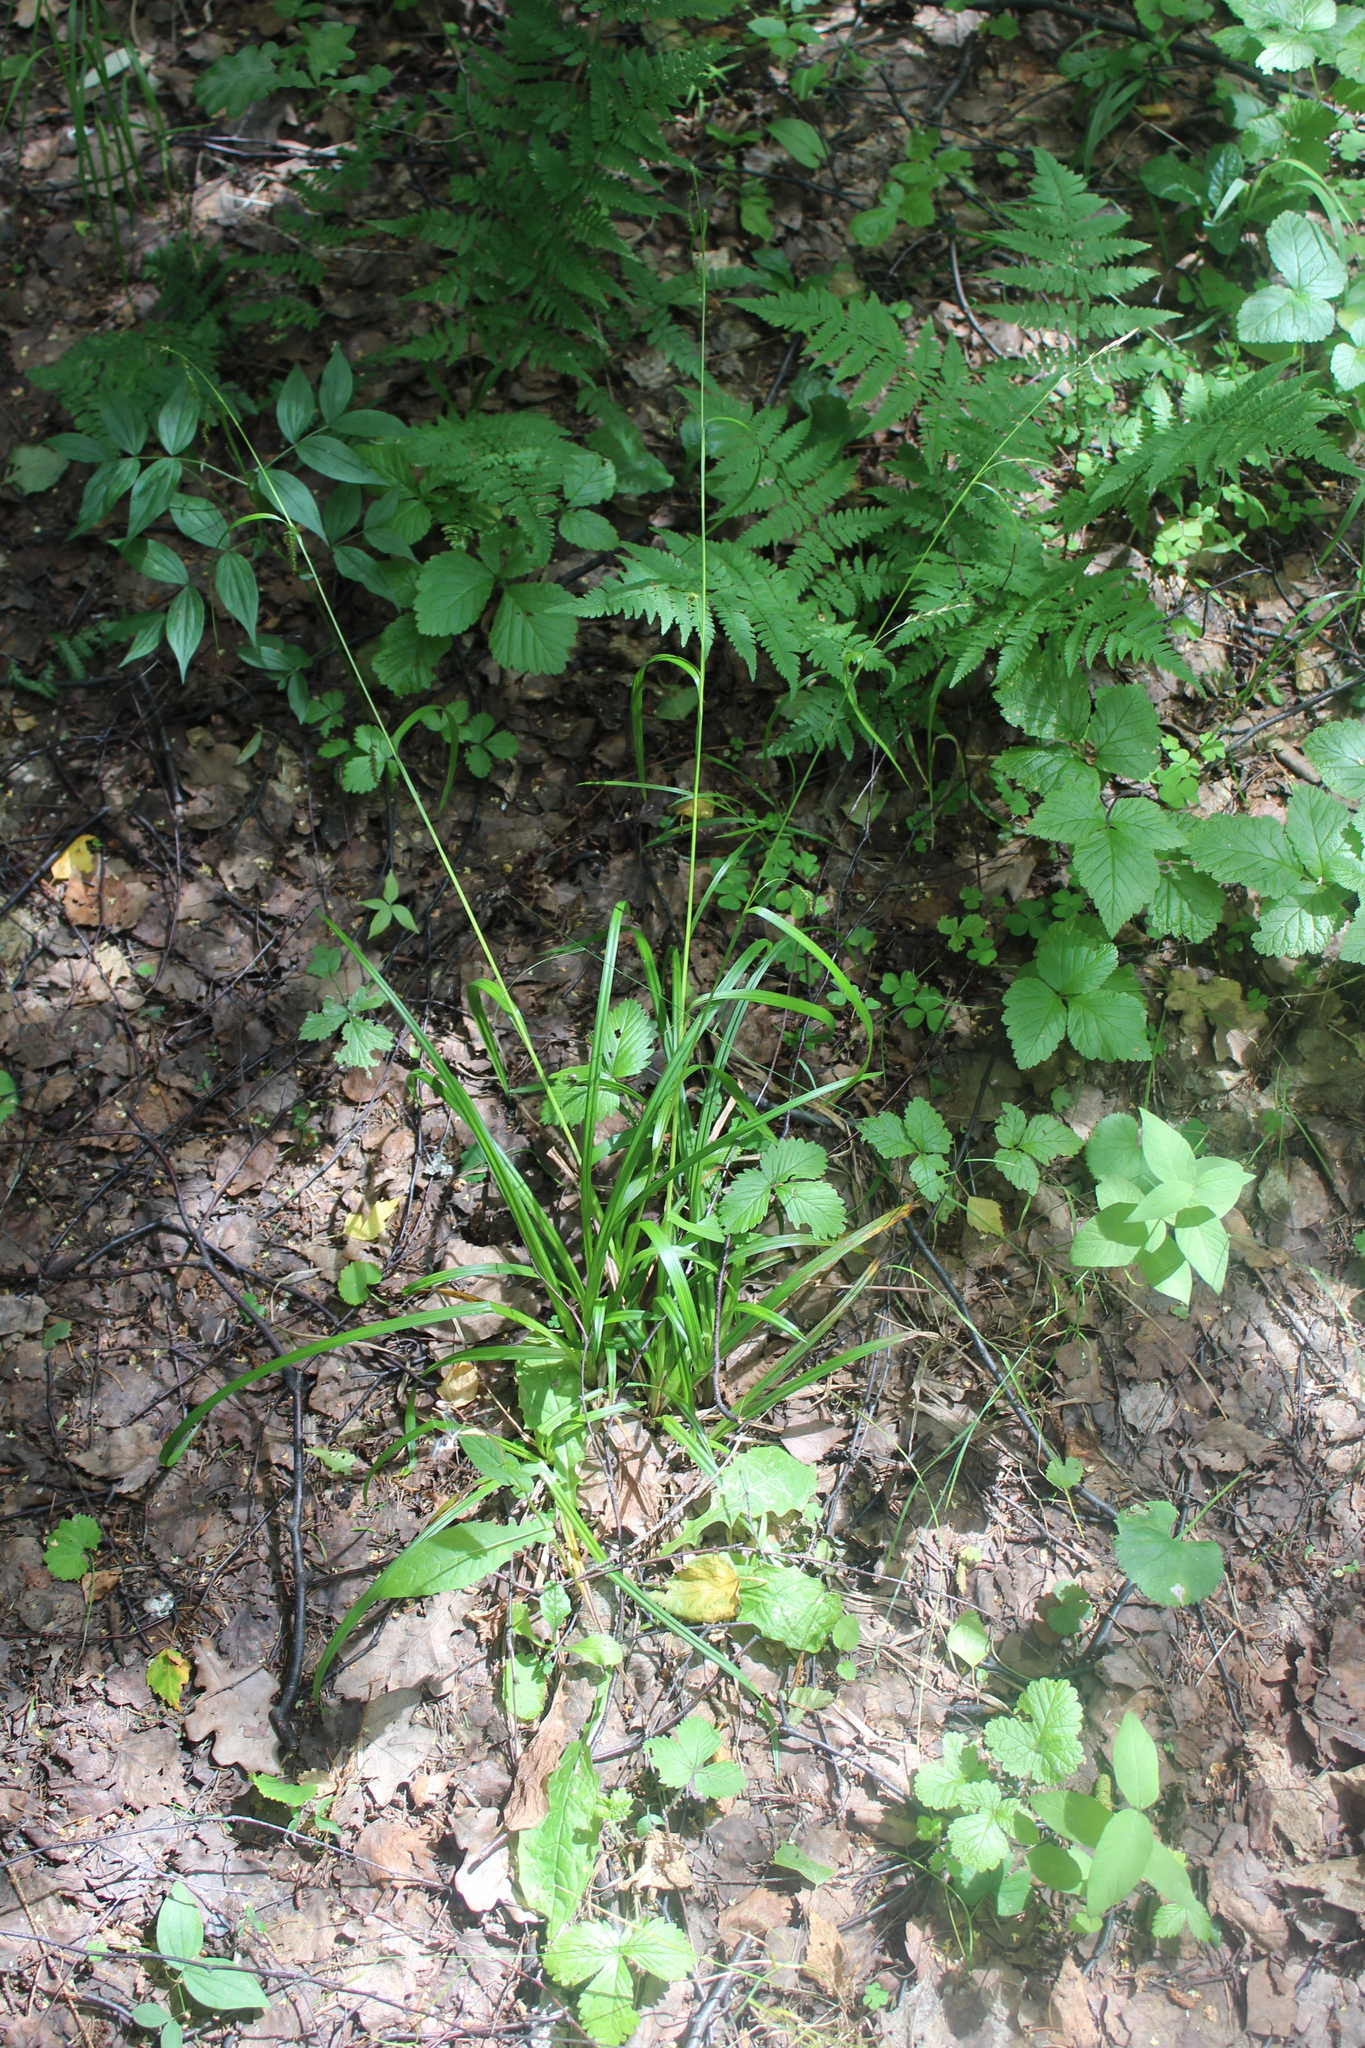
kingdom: Plantae
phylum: Tracheophyta
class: Liliopsida
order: Poales
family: Cyperaceae
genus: Carex
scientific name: Carex sylvatica
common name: Wood-sedge
